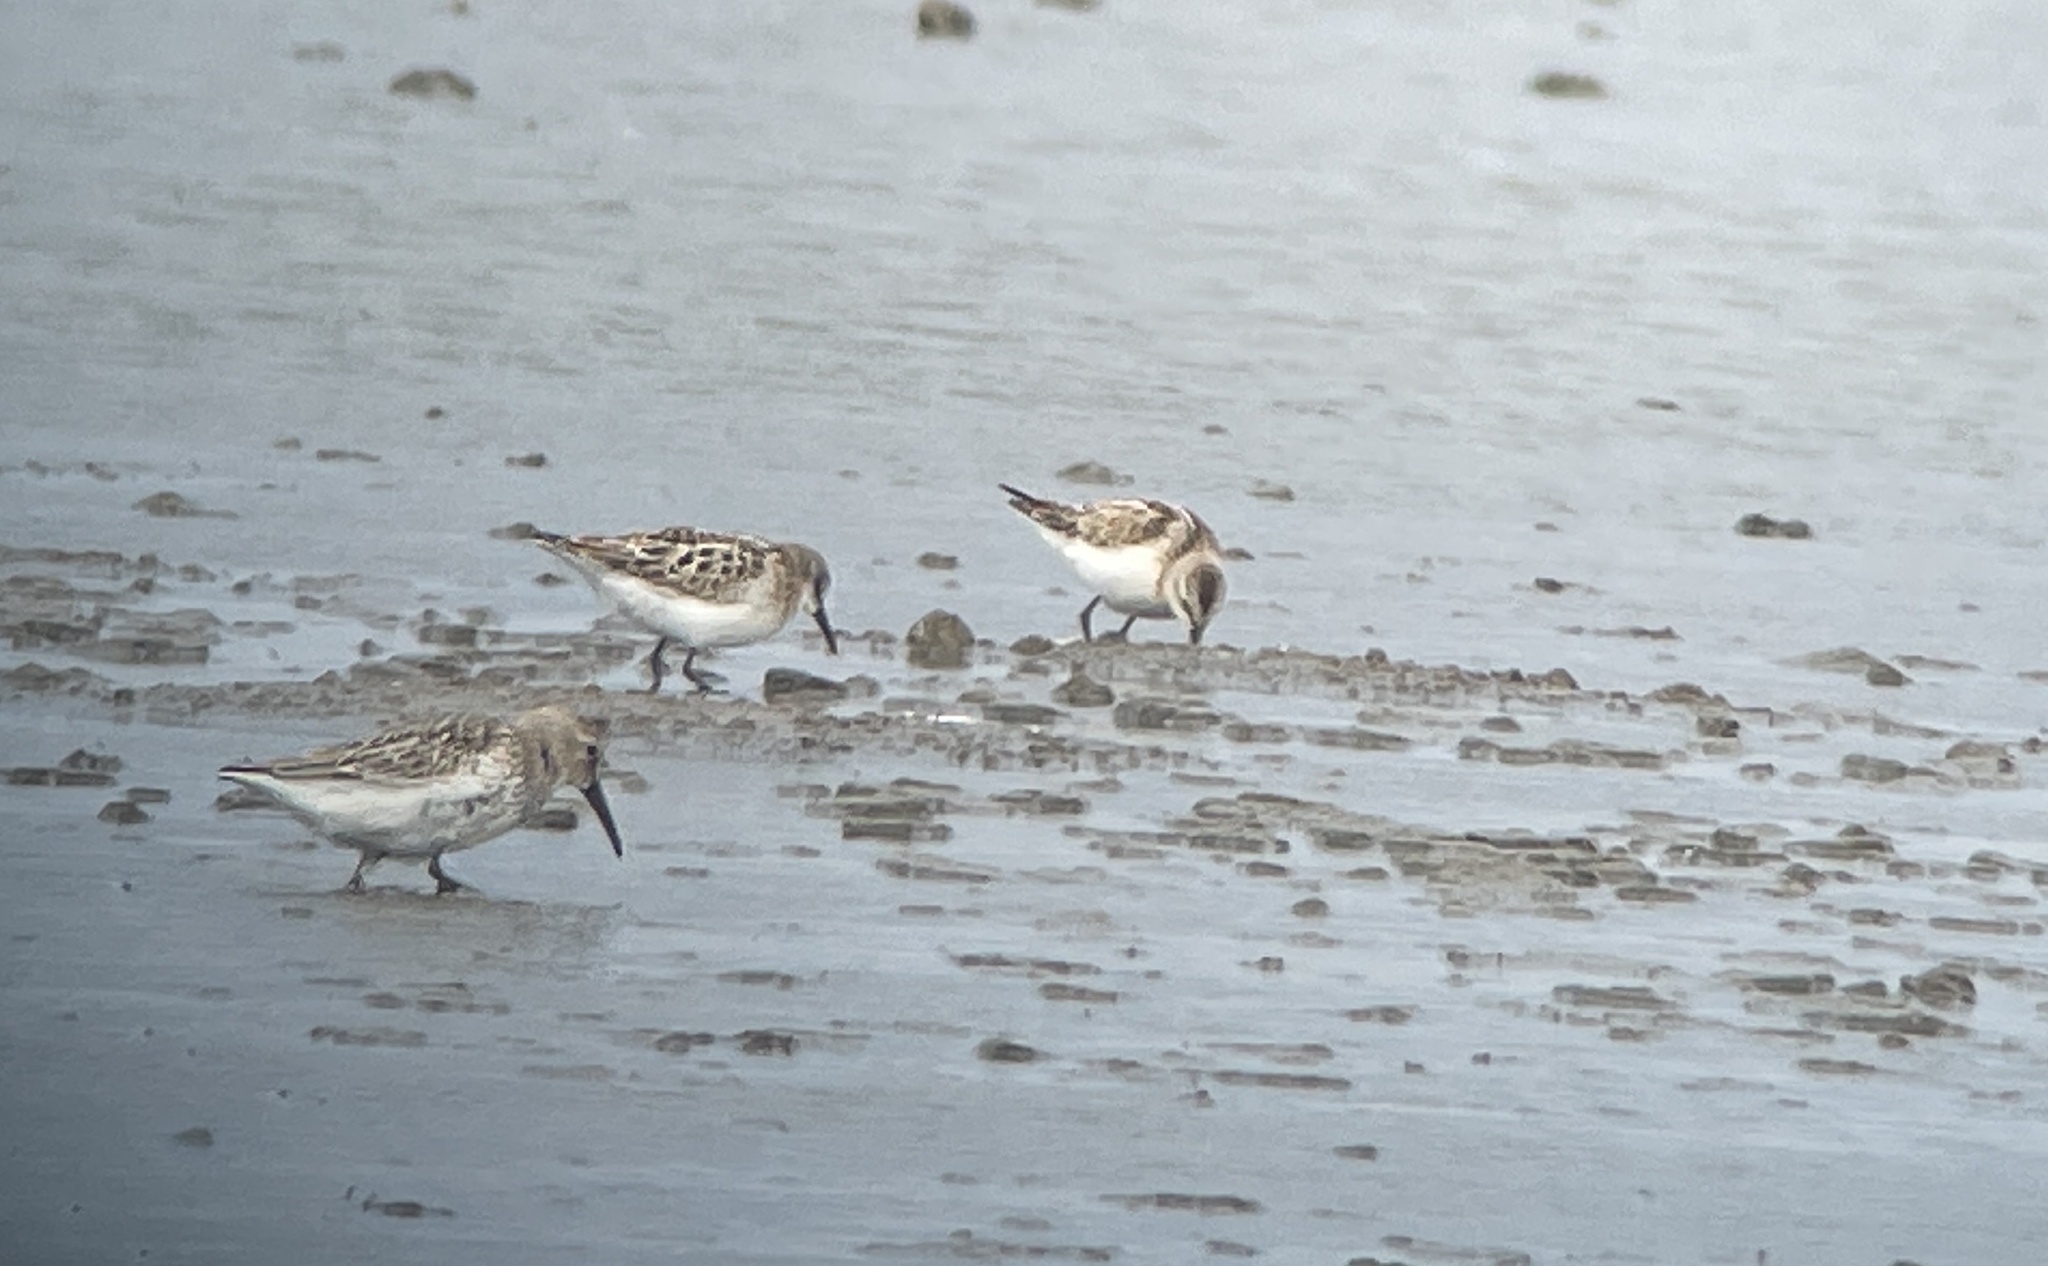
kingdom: Animalia
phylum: Chordata
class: Aves
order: Charadriiformes
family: Scolopacidae
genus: Calidris
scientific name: Calidris minuta
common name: Little stint
